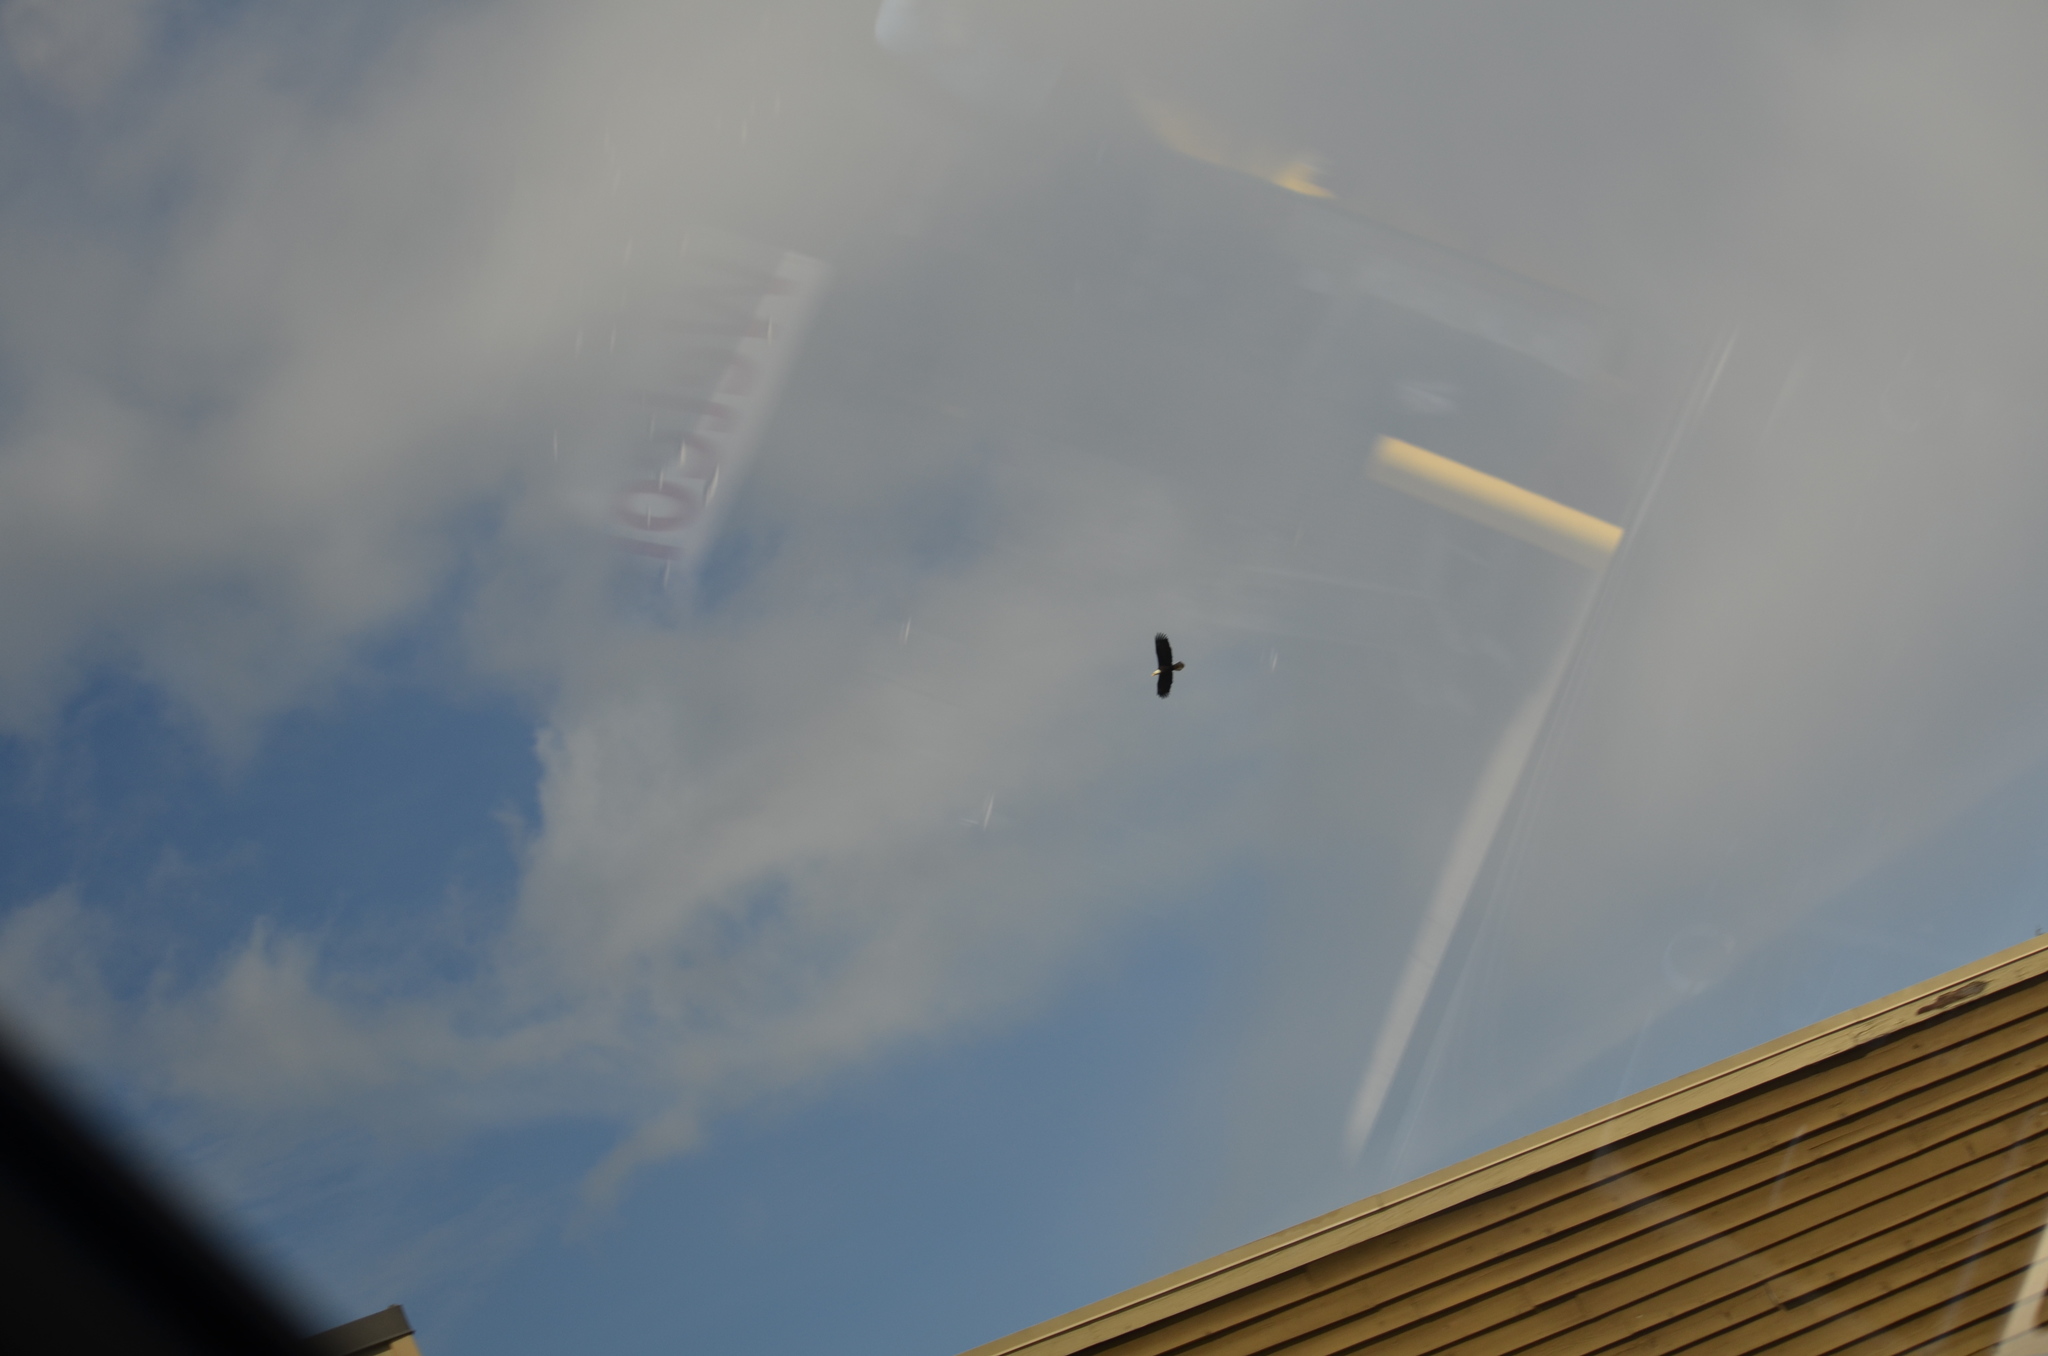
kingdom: Animalia
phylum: Chordata
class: Aves
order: Accipitriformes
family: Accipitridae
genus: Haliaeetus
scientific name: Haliaeetus leucocephalus
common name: Bald eagle
